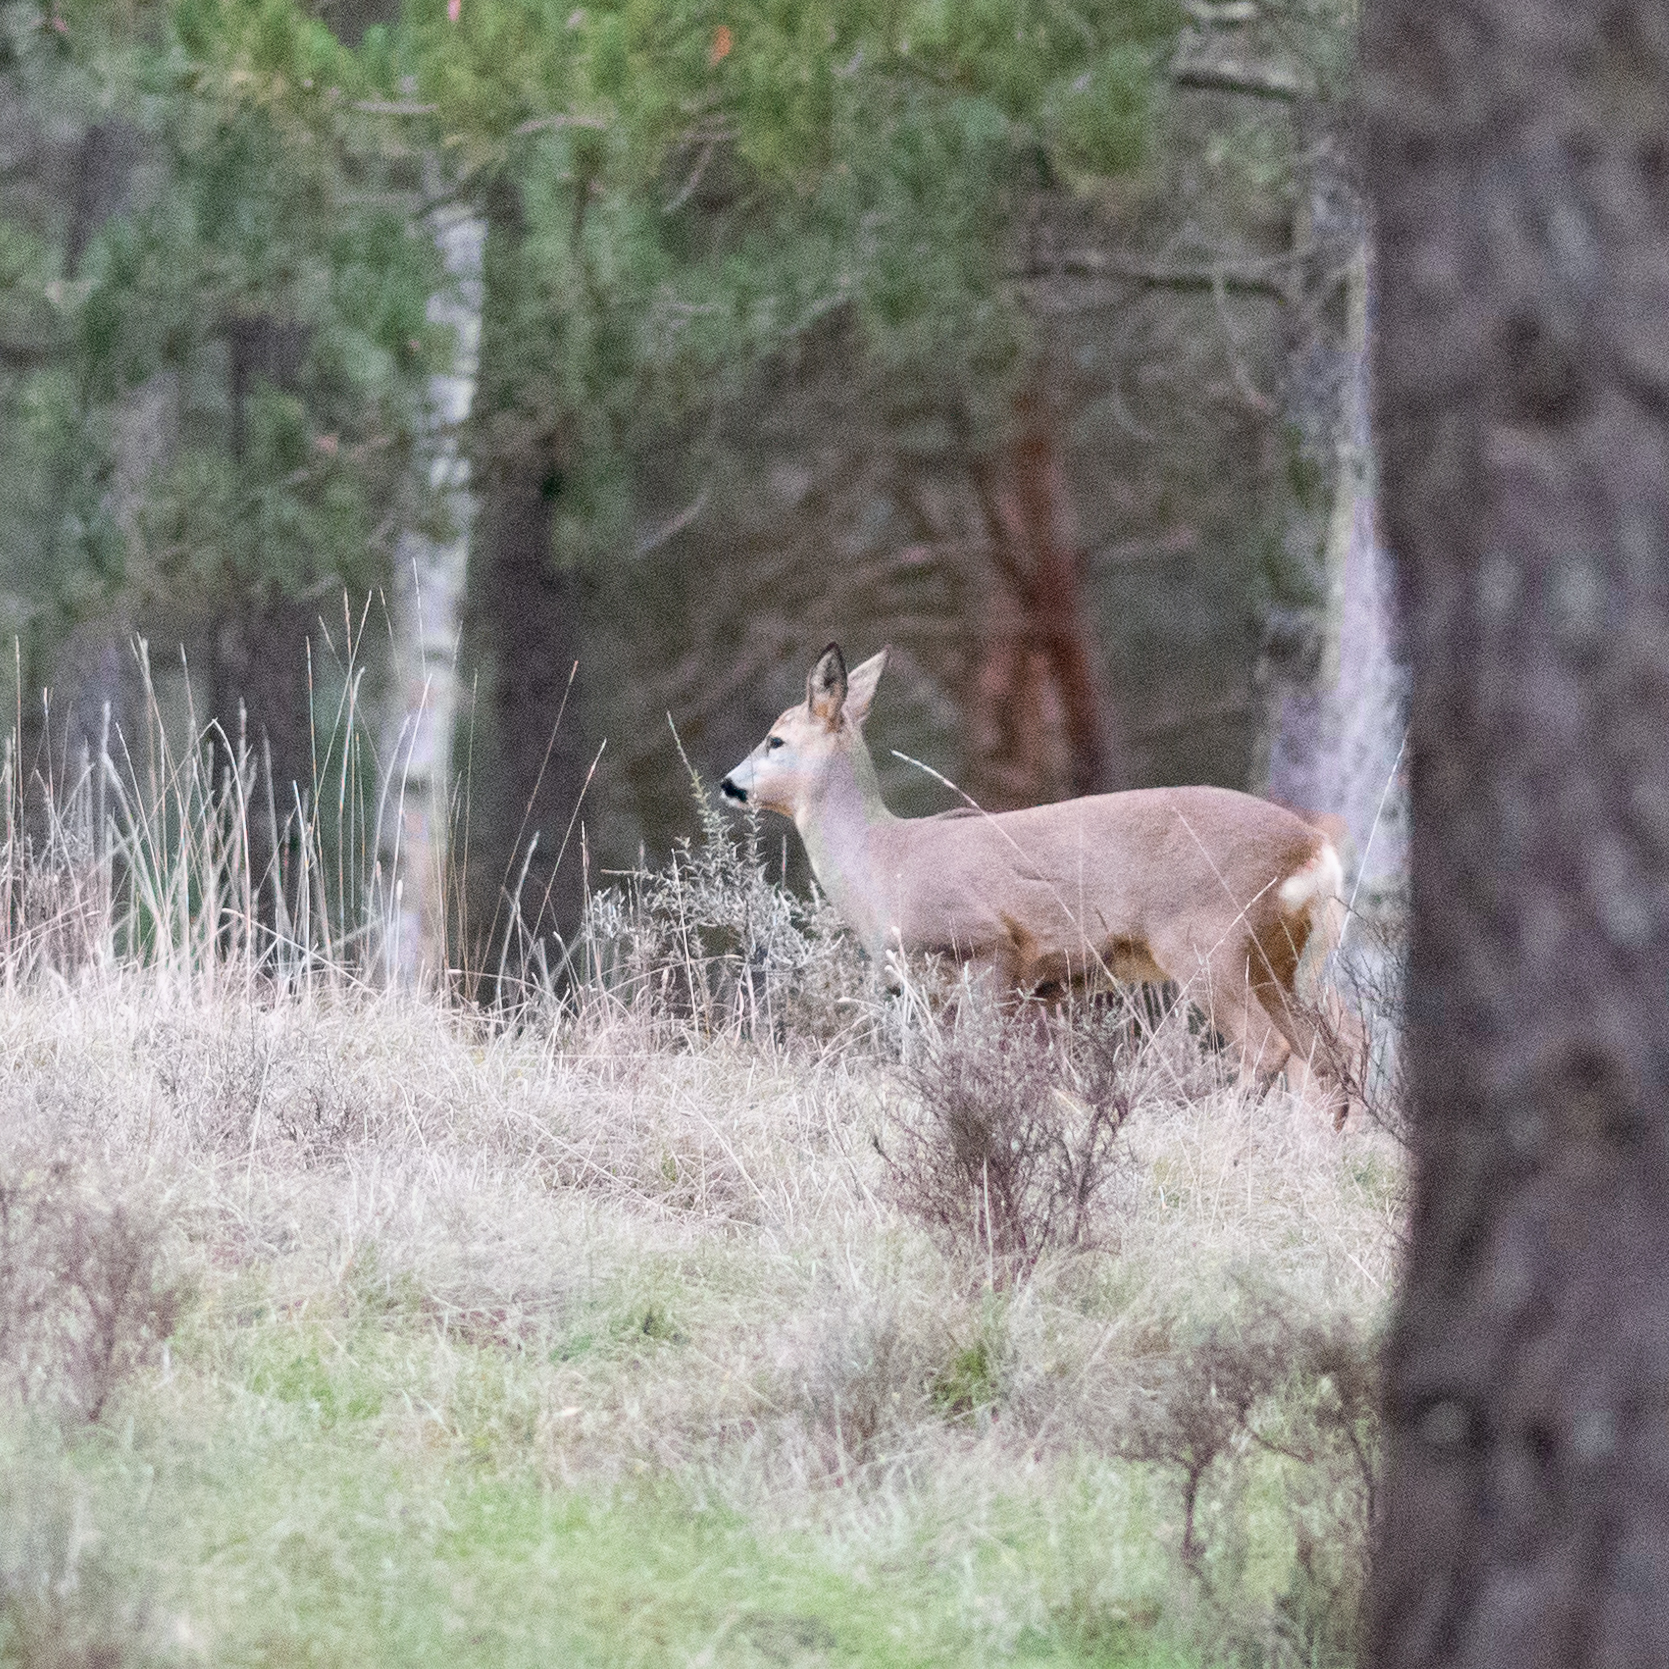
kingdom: Animalia
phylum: Chordata
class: Mammalia
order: Artiodactyla
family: Cervidae
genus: Capreolus
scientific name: Capreolus capreolus
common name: Western roe deer
